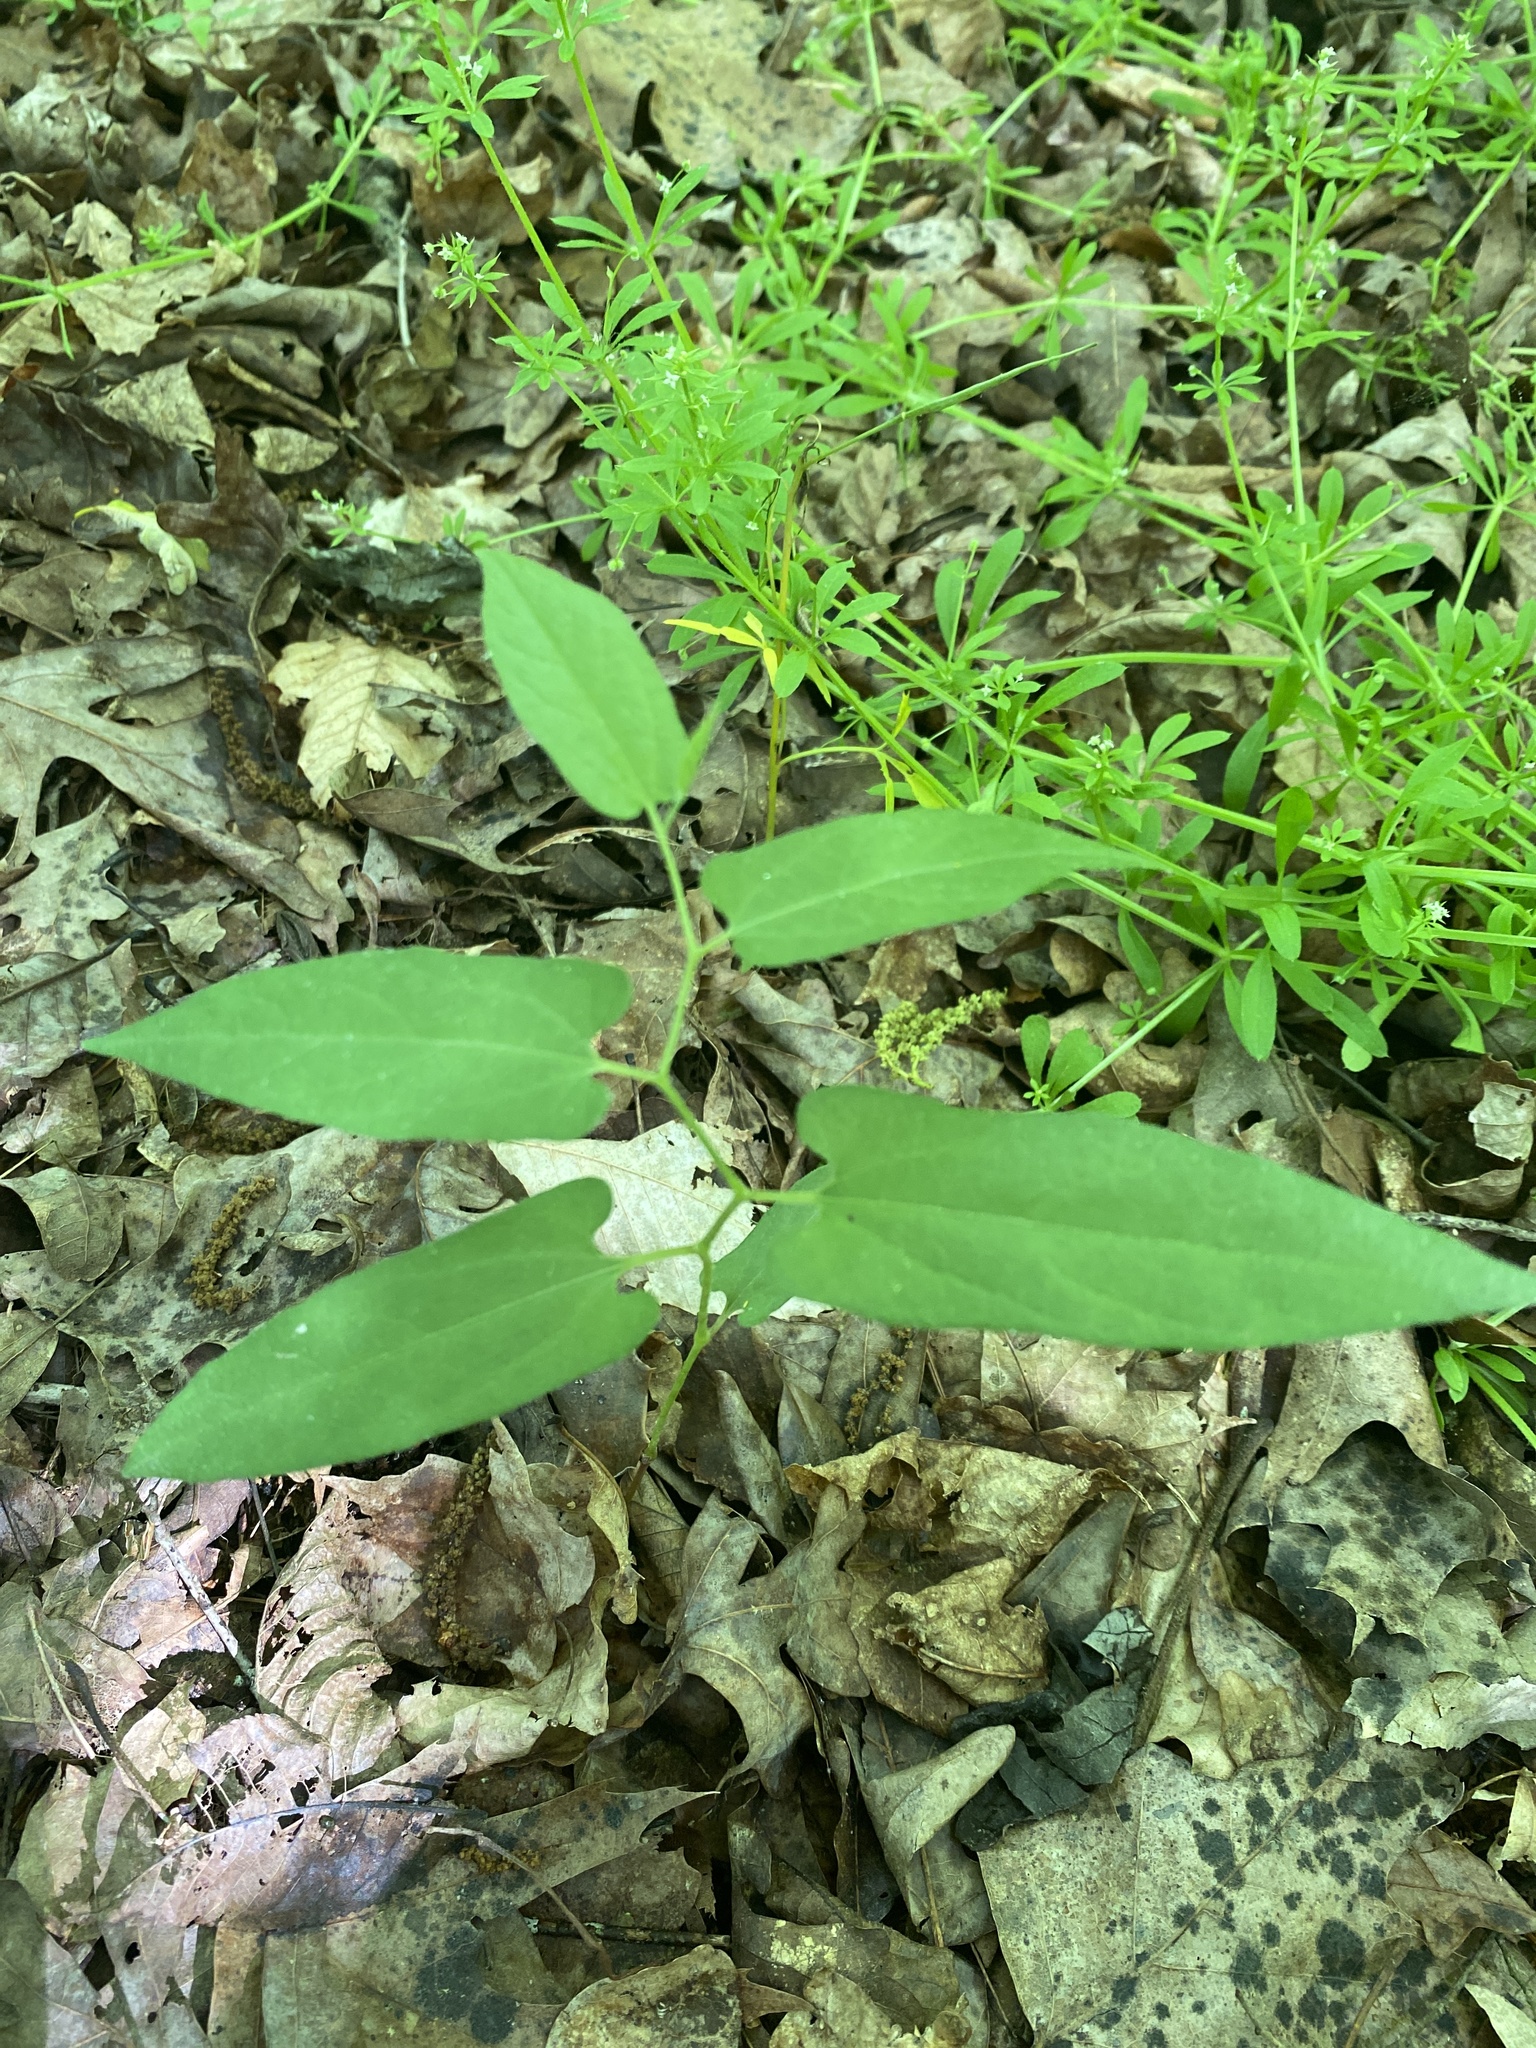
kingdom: Plantae
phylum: Tracheophyta
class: Magnoliopsida
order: Piperales
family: Aristolochiaceae
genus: Endodeca
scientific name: Endodeca serpentaria
